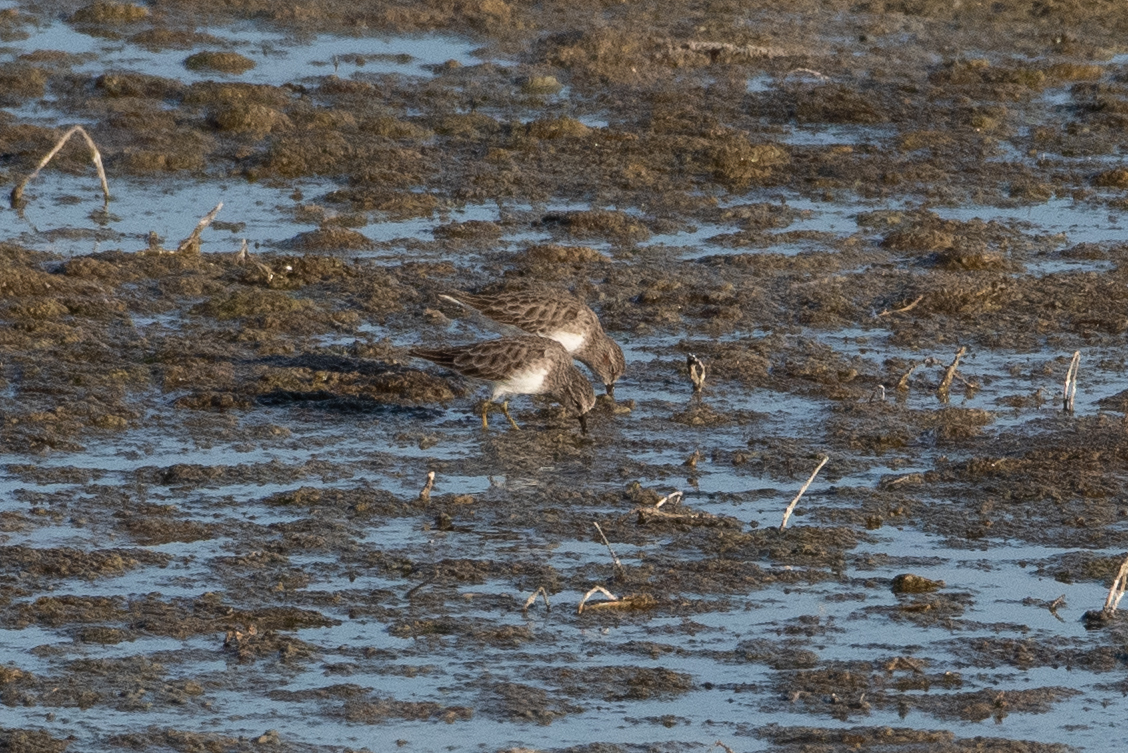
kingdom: Animalia
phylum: Chordata
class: Aves
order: Charadriiformes
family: Scolopacidae
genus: Calidris
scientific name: Calidris minutilla
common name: Least sandpiper
